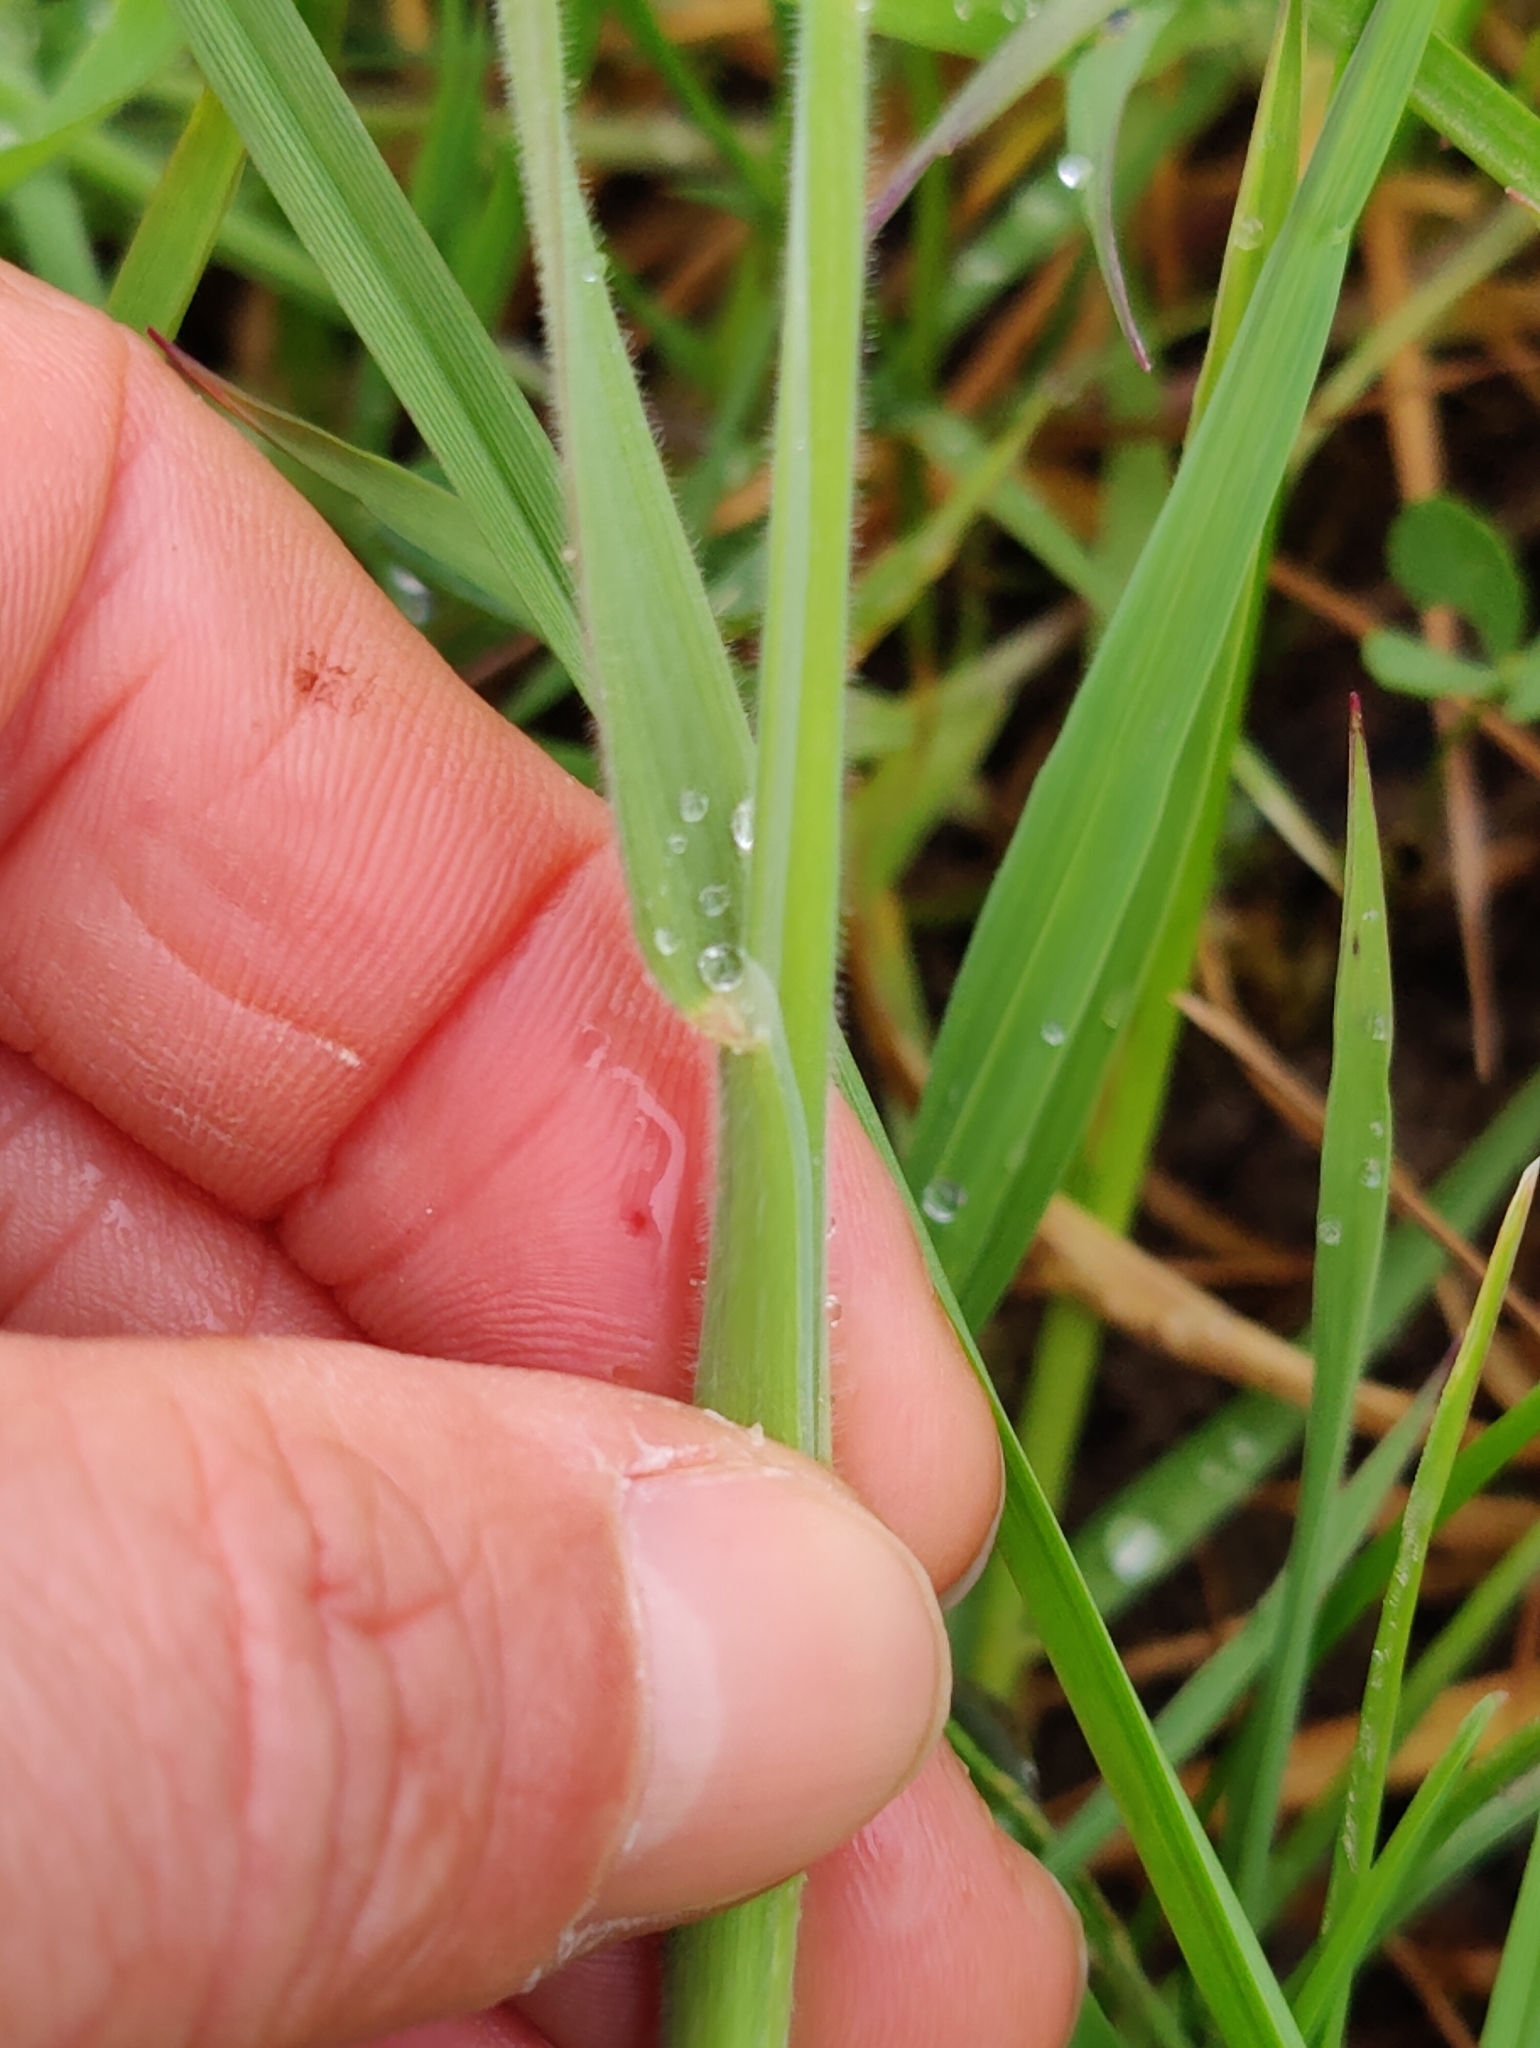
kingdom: Plantae
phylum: Tracheophyta
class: Liliopsida
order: Poales
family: Poaceae
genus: Holcus
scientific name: Holcus lanatus
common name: Yorkshire-fog
